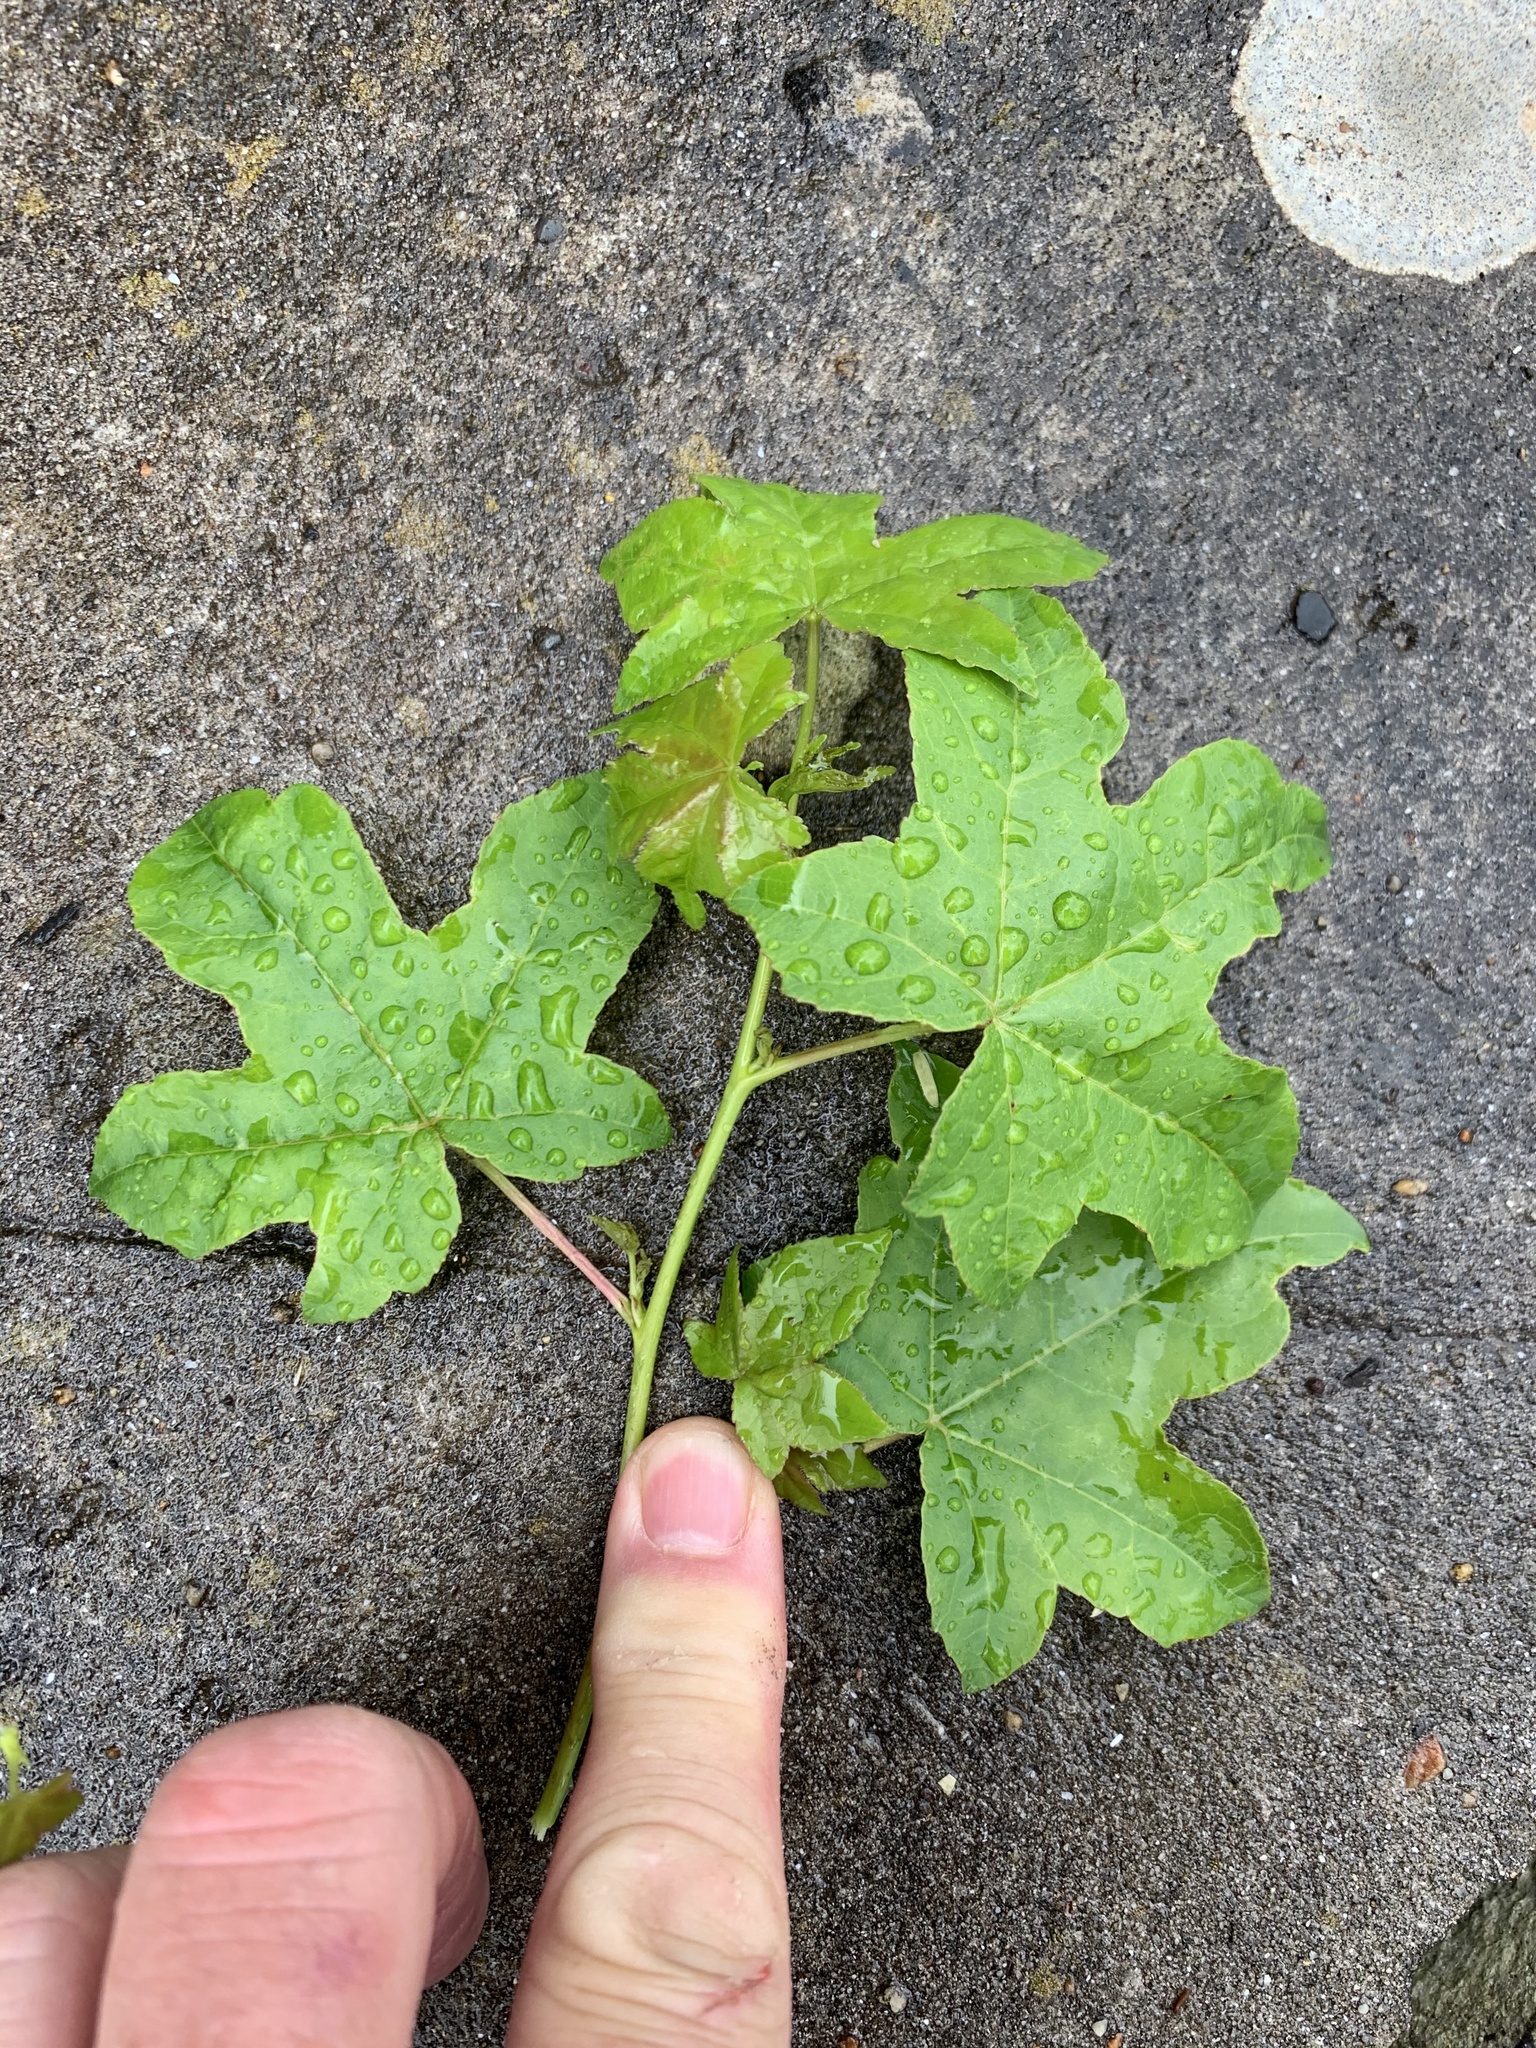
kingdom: Plantae
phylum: Tracheophyta
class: Magnoliopsida
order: Saxifragales
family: Altingiaceae
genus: Liquidambar
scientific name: Liquidambar styraciflua
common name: Sweet gum
